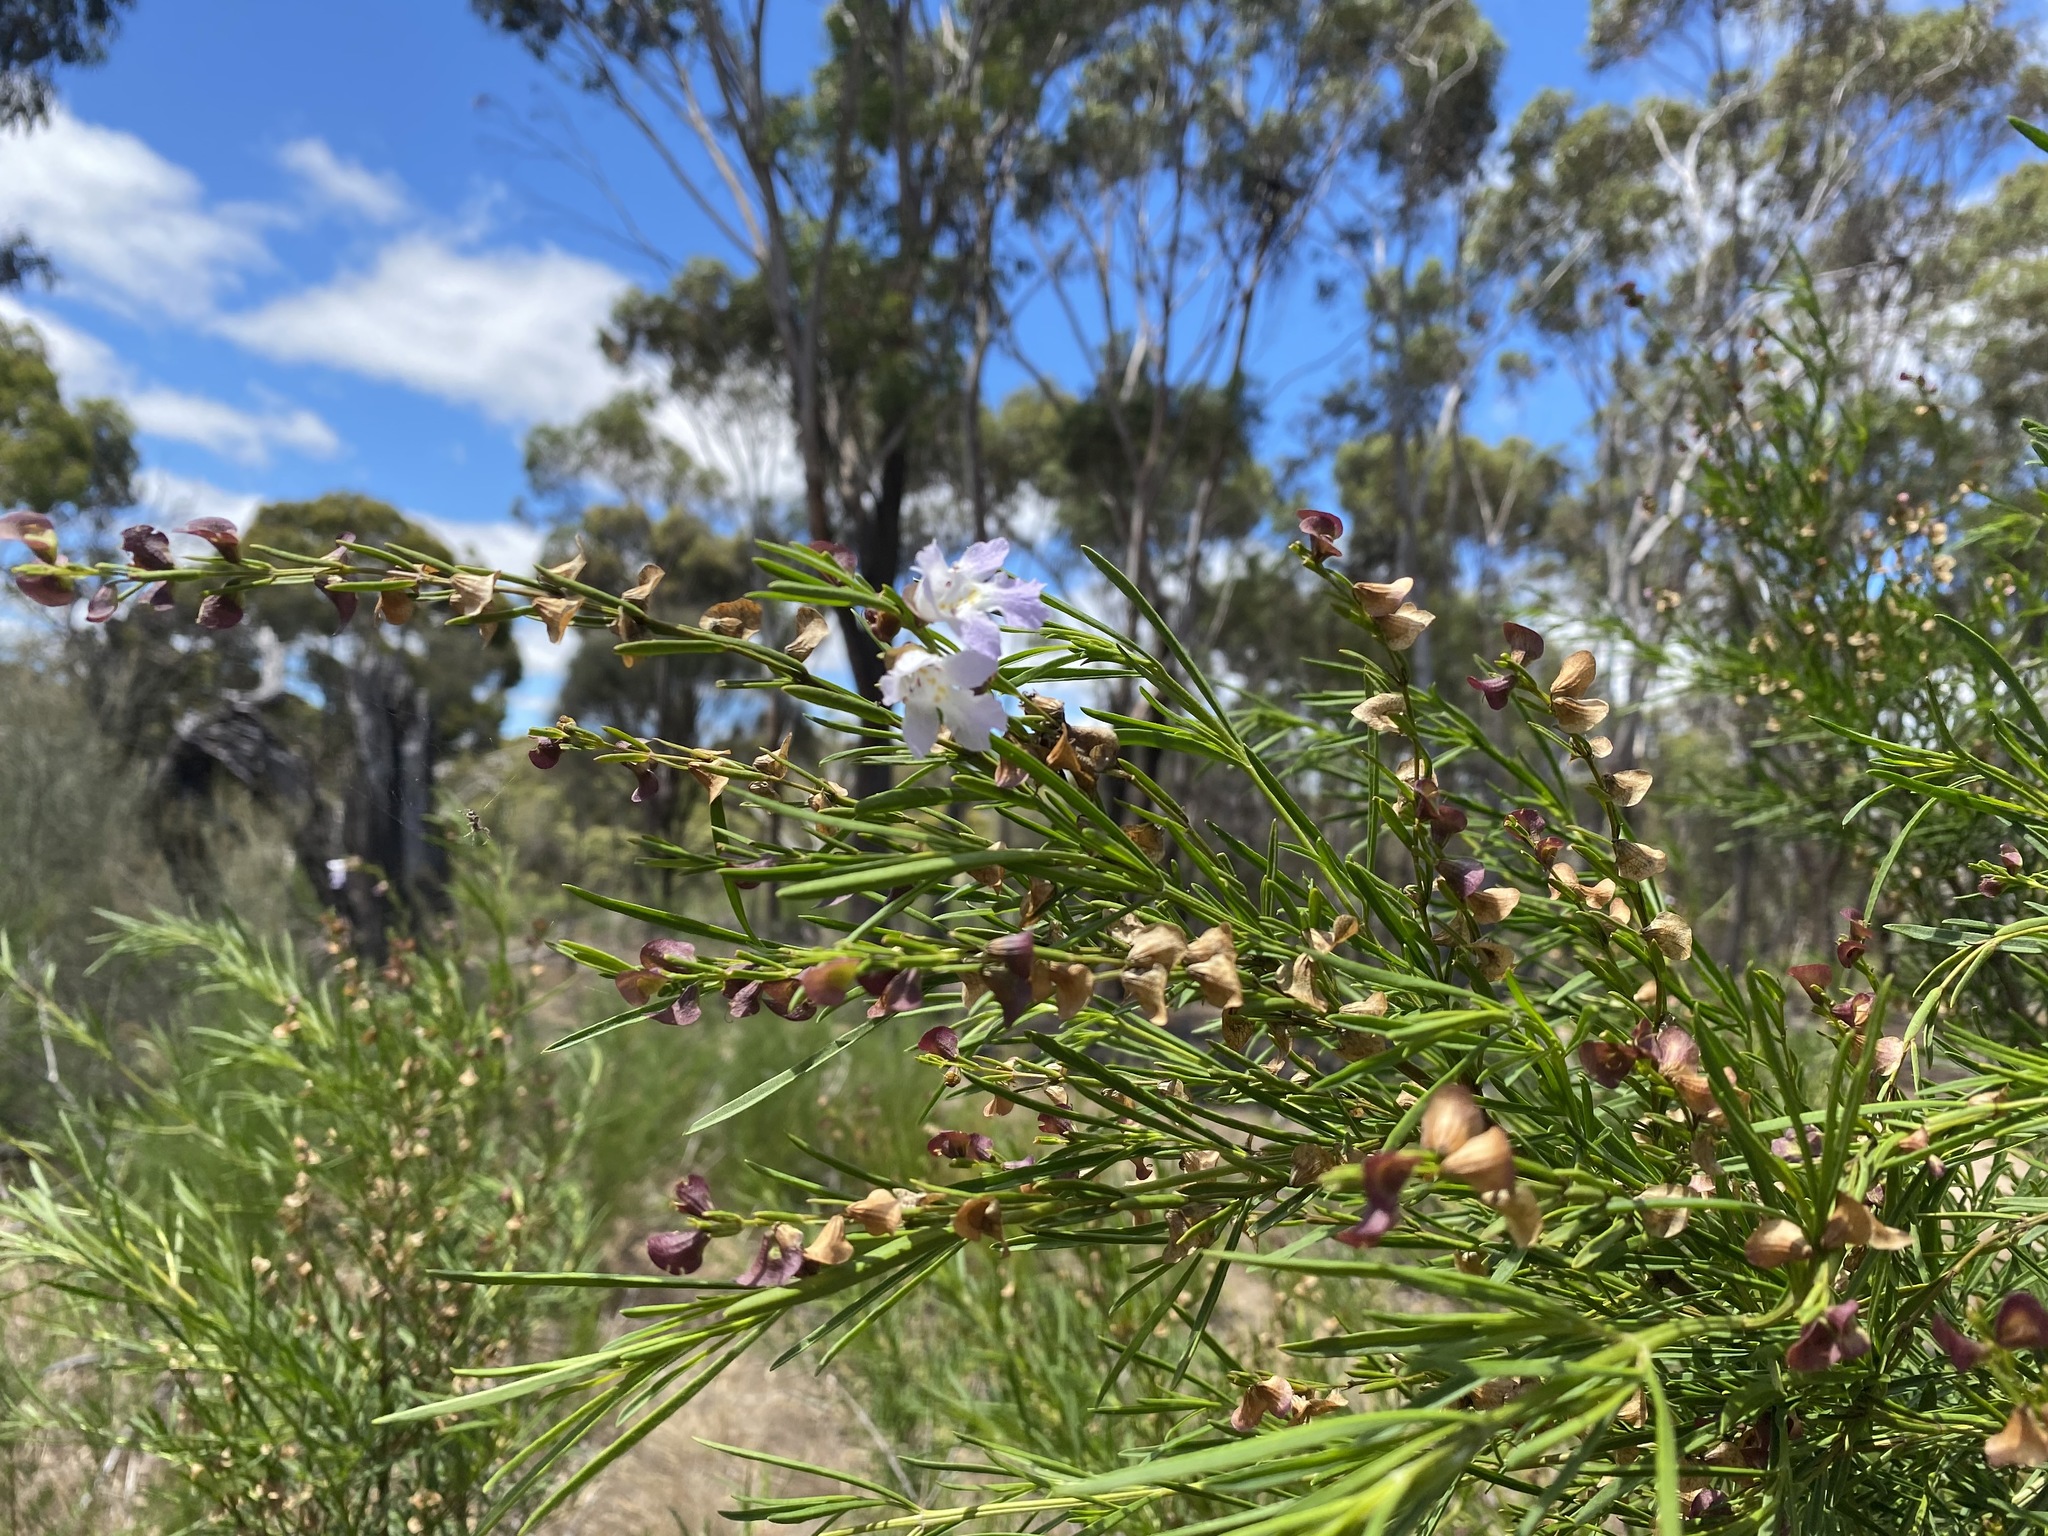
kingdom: Plantae
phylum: Tracheophyta
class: Magnoliopsida
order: Lamiales
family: Lamiaceae
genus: Prostanthera
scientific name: Prostanthera nivea
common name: Snowy mintbush
